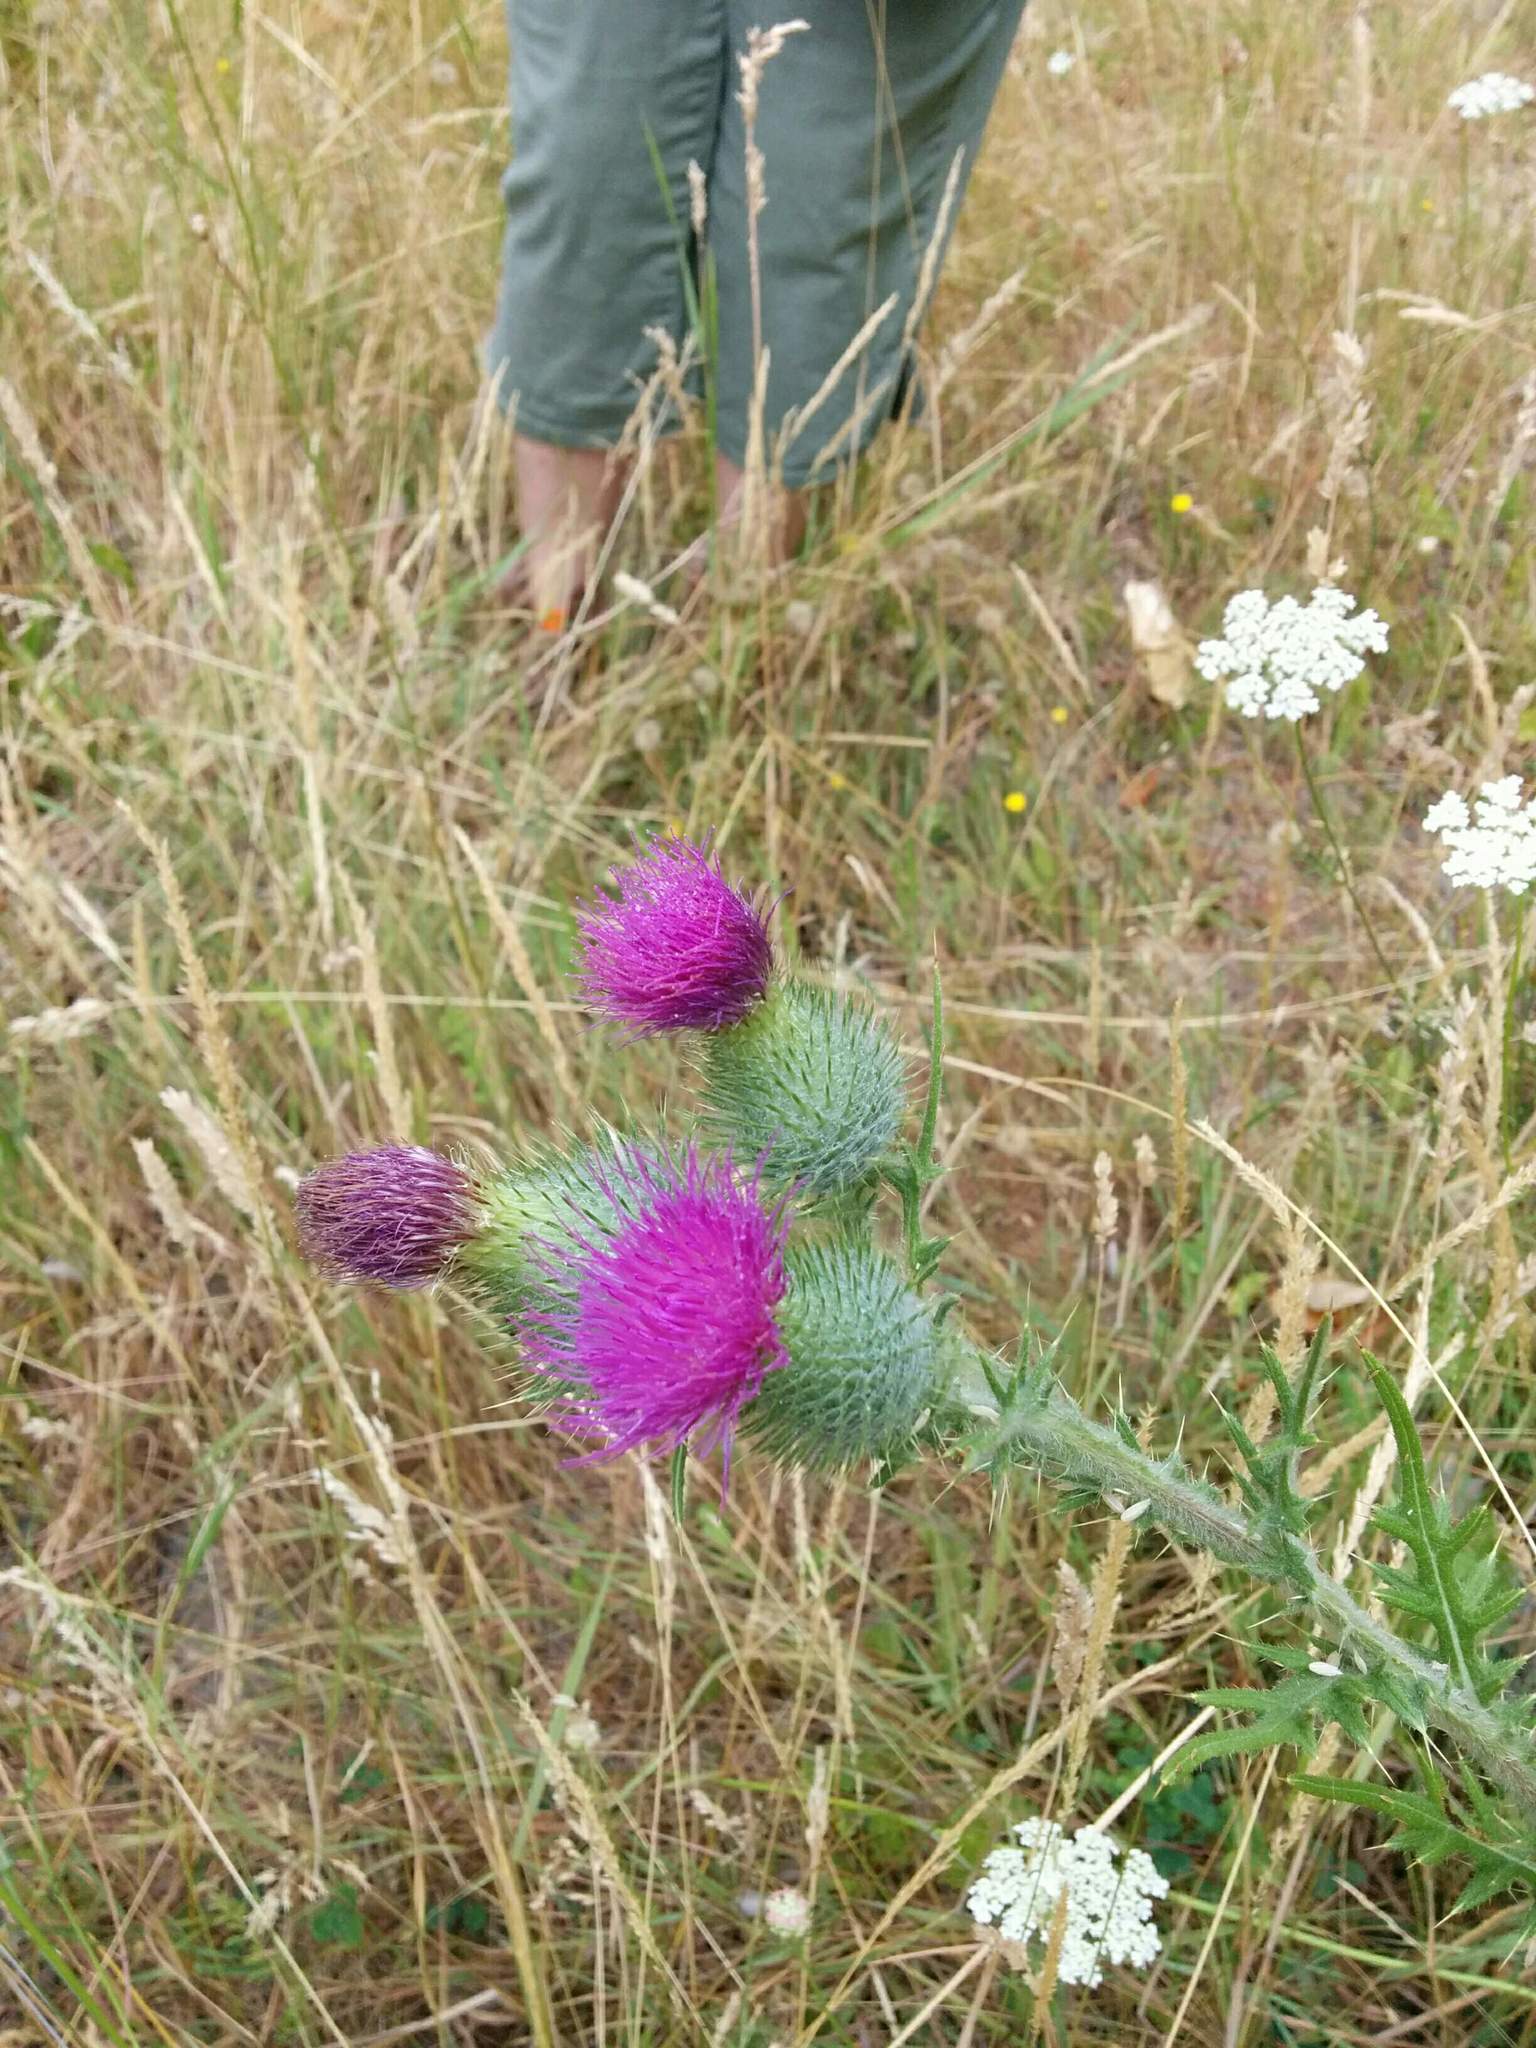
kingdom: Plantae
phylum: Tracheophyta
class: Magnoliopsida
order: Asterales
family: Asteraceae
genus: Cirsium
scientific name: Cirsium vulgare
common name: Bull thistle
